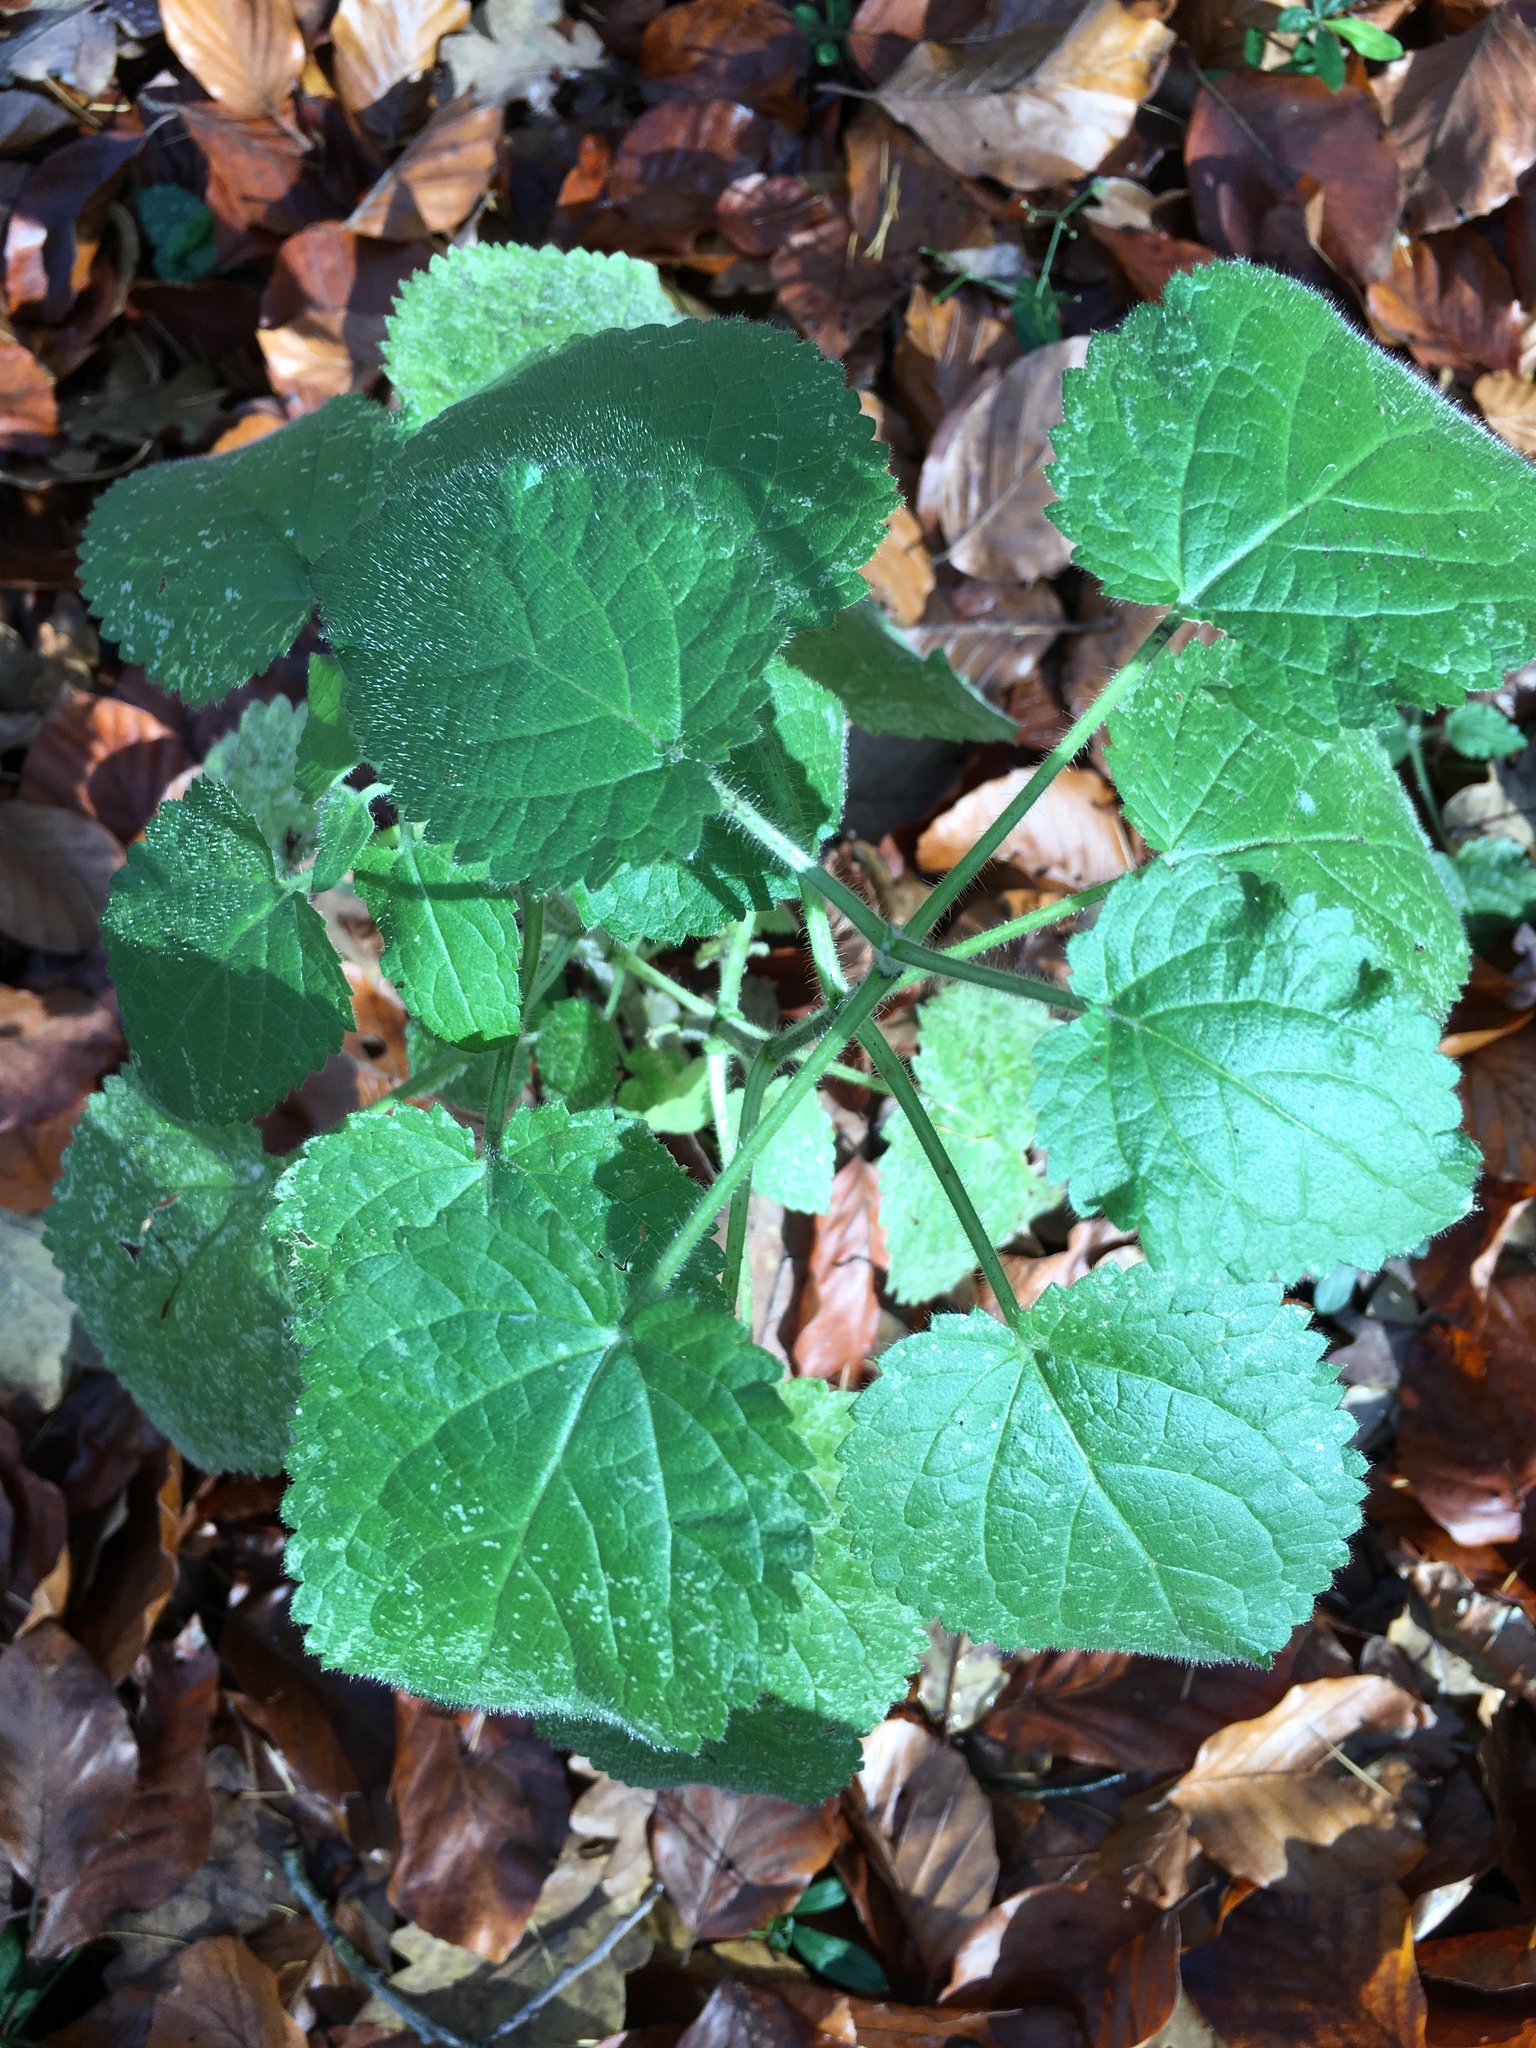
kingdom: Plantae
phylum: Tracheophyta
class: Magnoliopsida
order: Lamiales
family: Lamiaceae
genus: Stachys
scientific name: Stachys sylvatica
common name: Hedge woundwort
